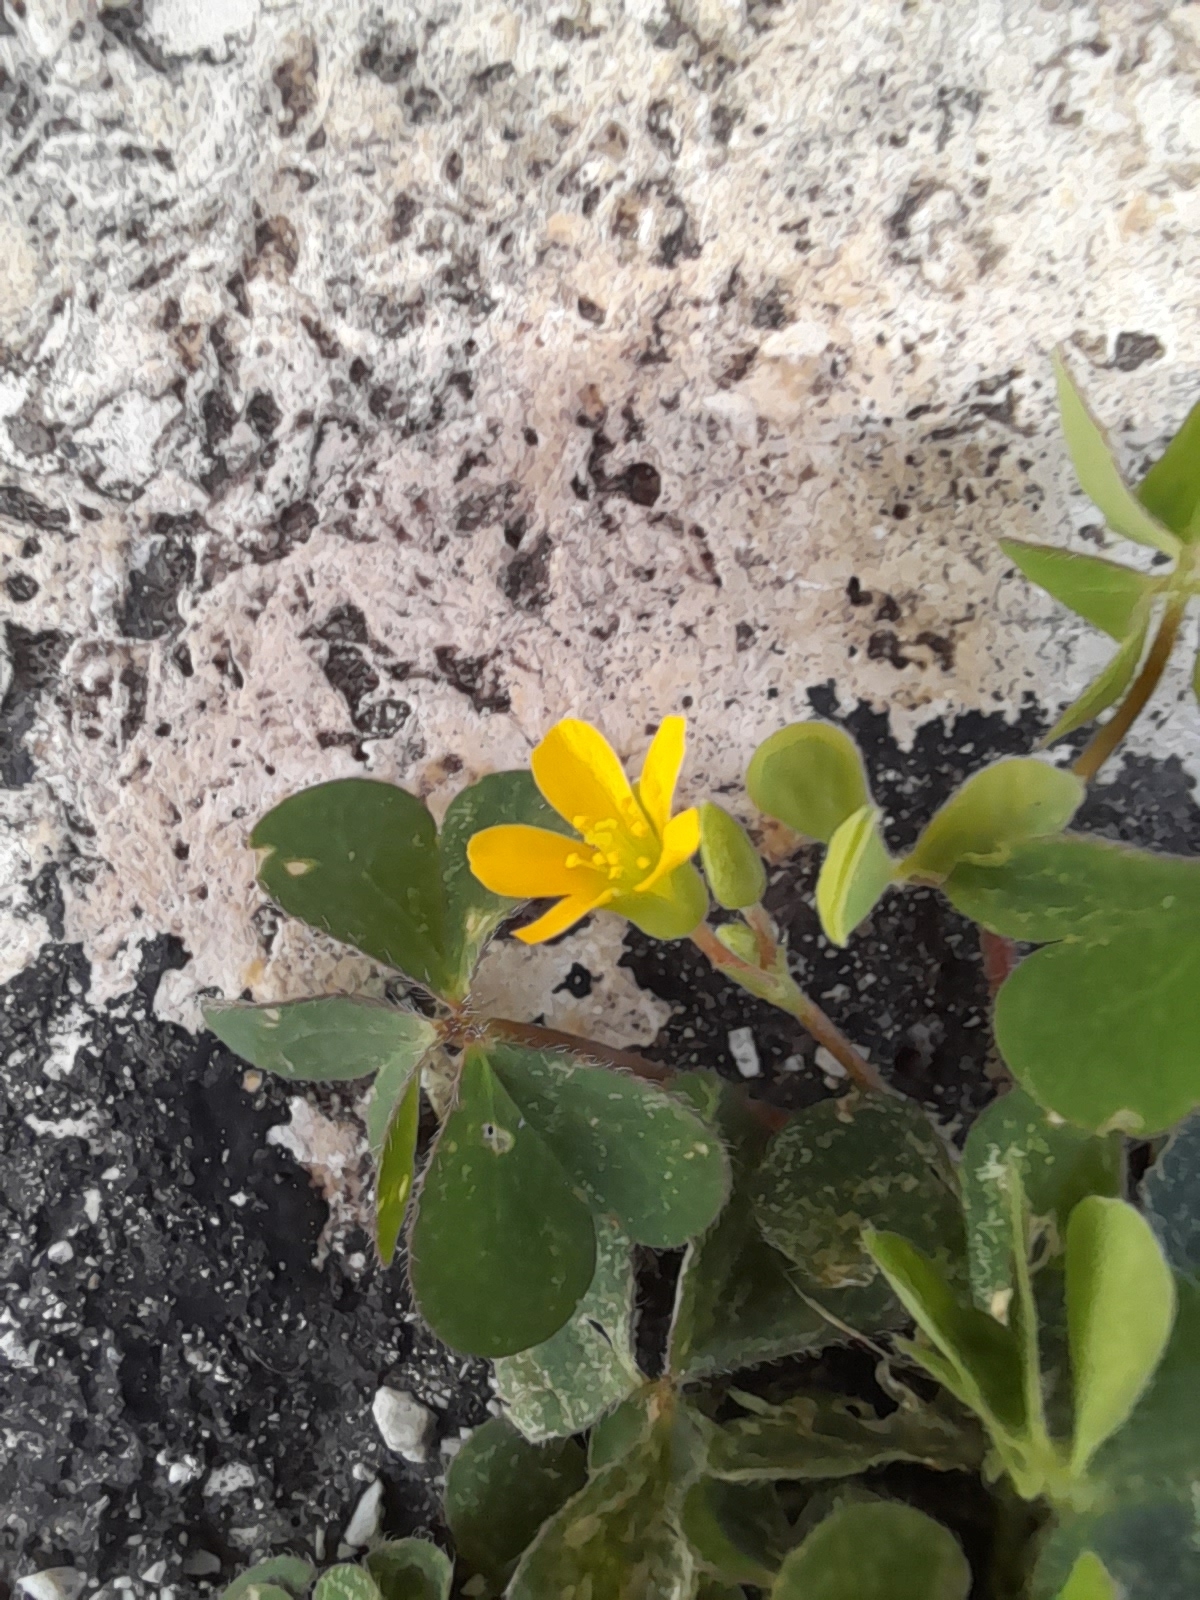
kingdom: Plantae
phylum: Tracheophyta
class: Magnoliopsida
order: Oxalidales
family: Oxalidaceae
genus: Oxalis
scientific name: Oxalis corniculata
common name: Procumbent yellow-sorrel
